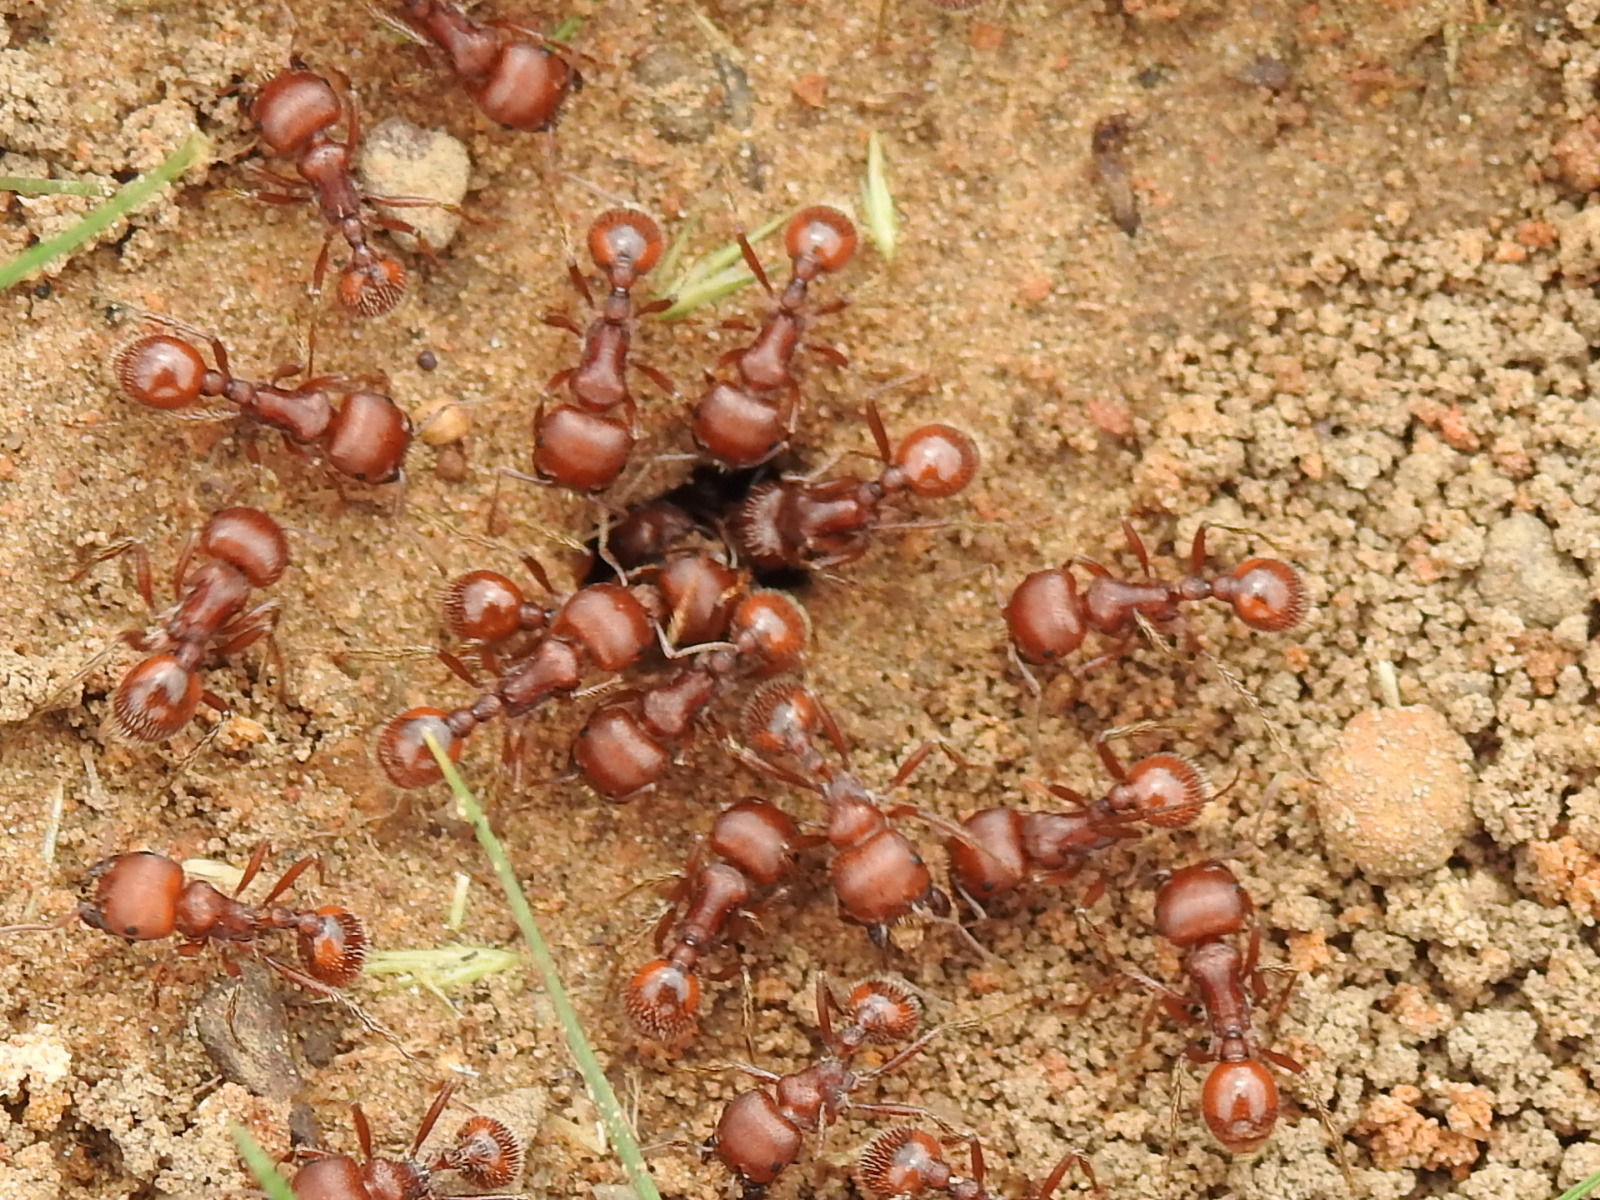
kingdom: Animalia
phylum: Arthropoda
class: Insecta
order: Hymenoptera
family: Formicidae
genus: Pogonomyrmex
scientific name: Pogonomyrmex barbatus
